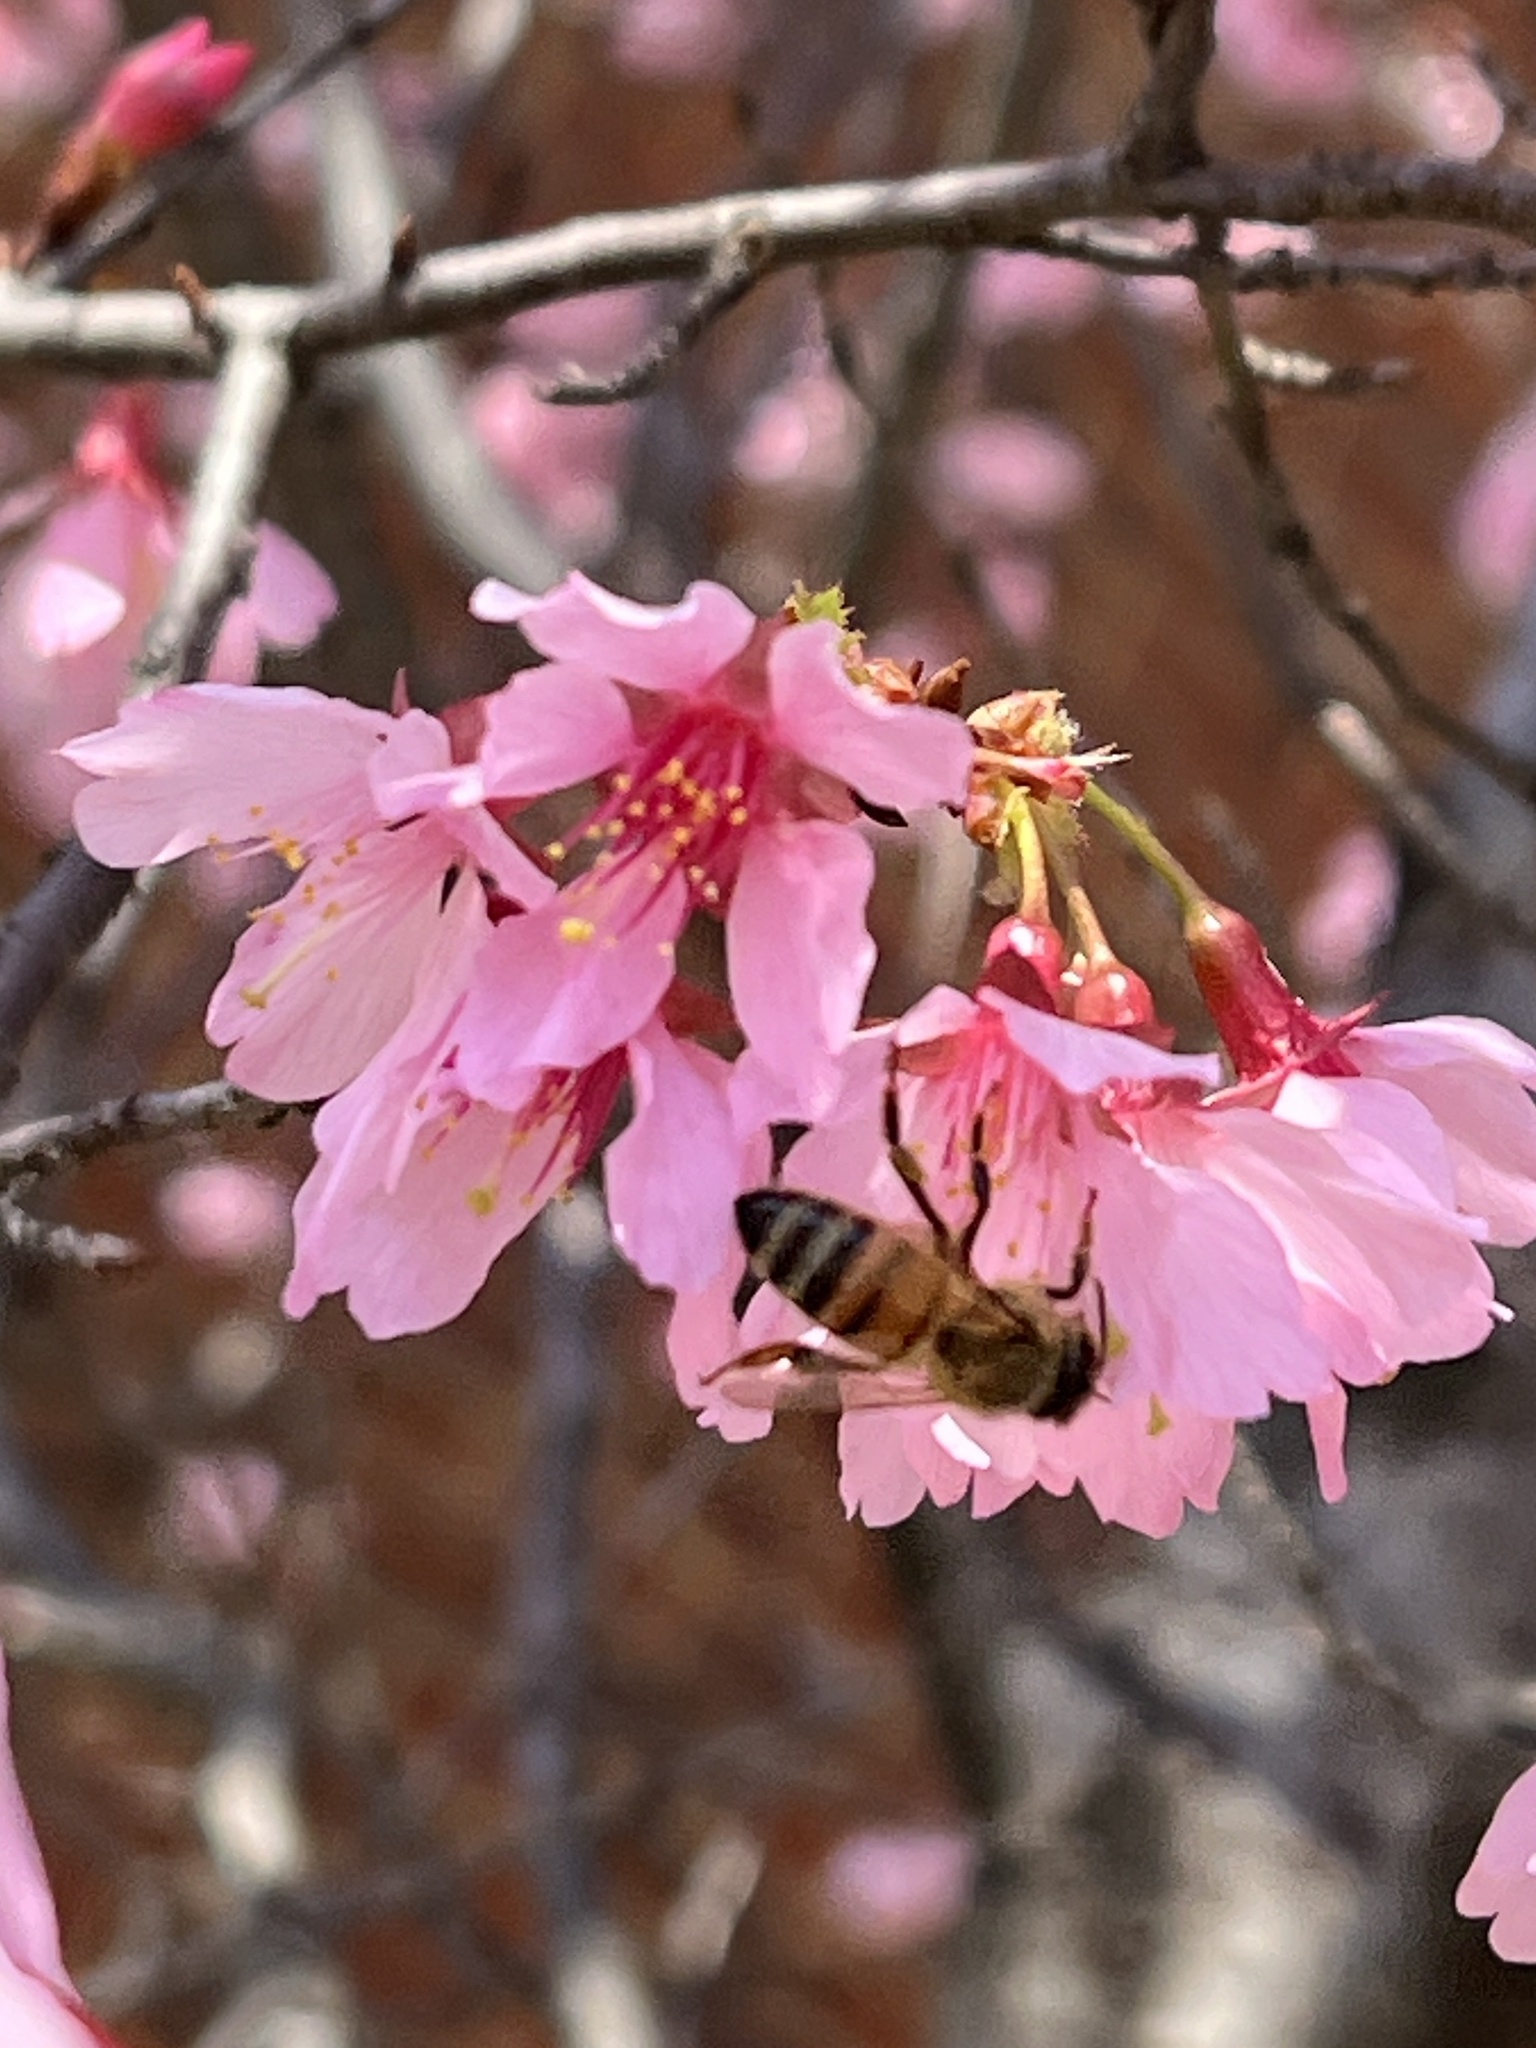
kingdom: Animalia
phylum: Arthropoda
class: Insecta
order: Hymenoptera
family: Apidae
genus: Apis
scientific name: Apis mellifera
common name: Honey bee
